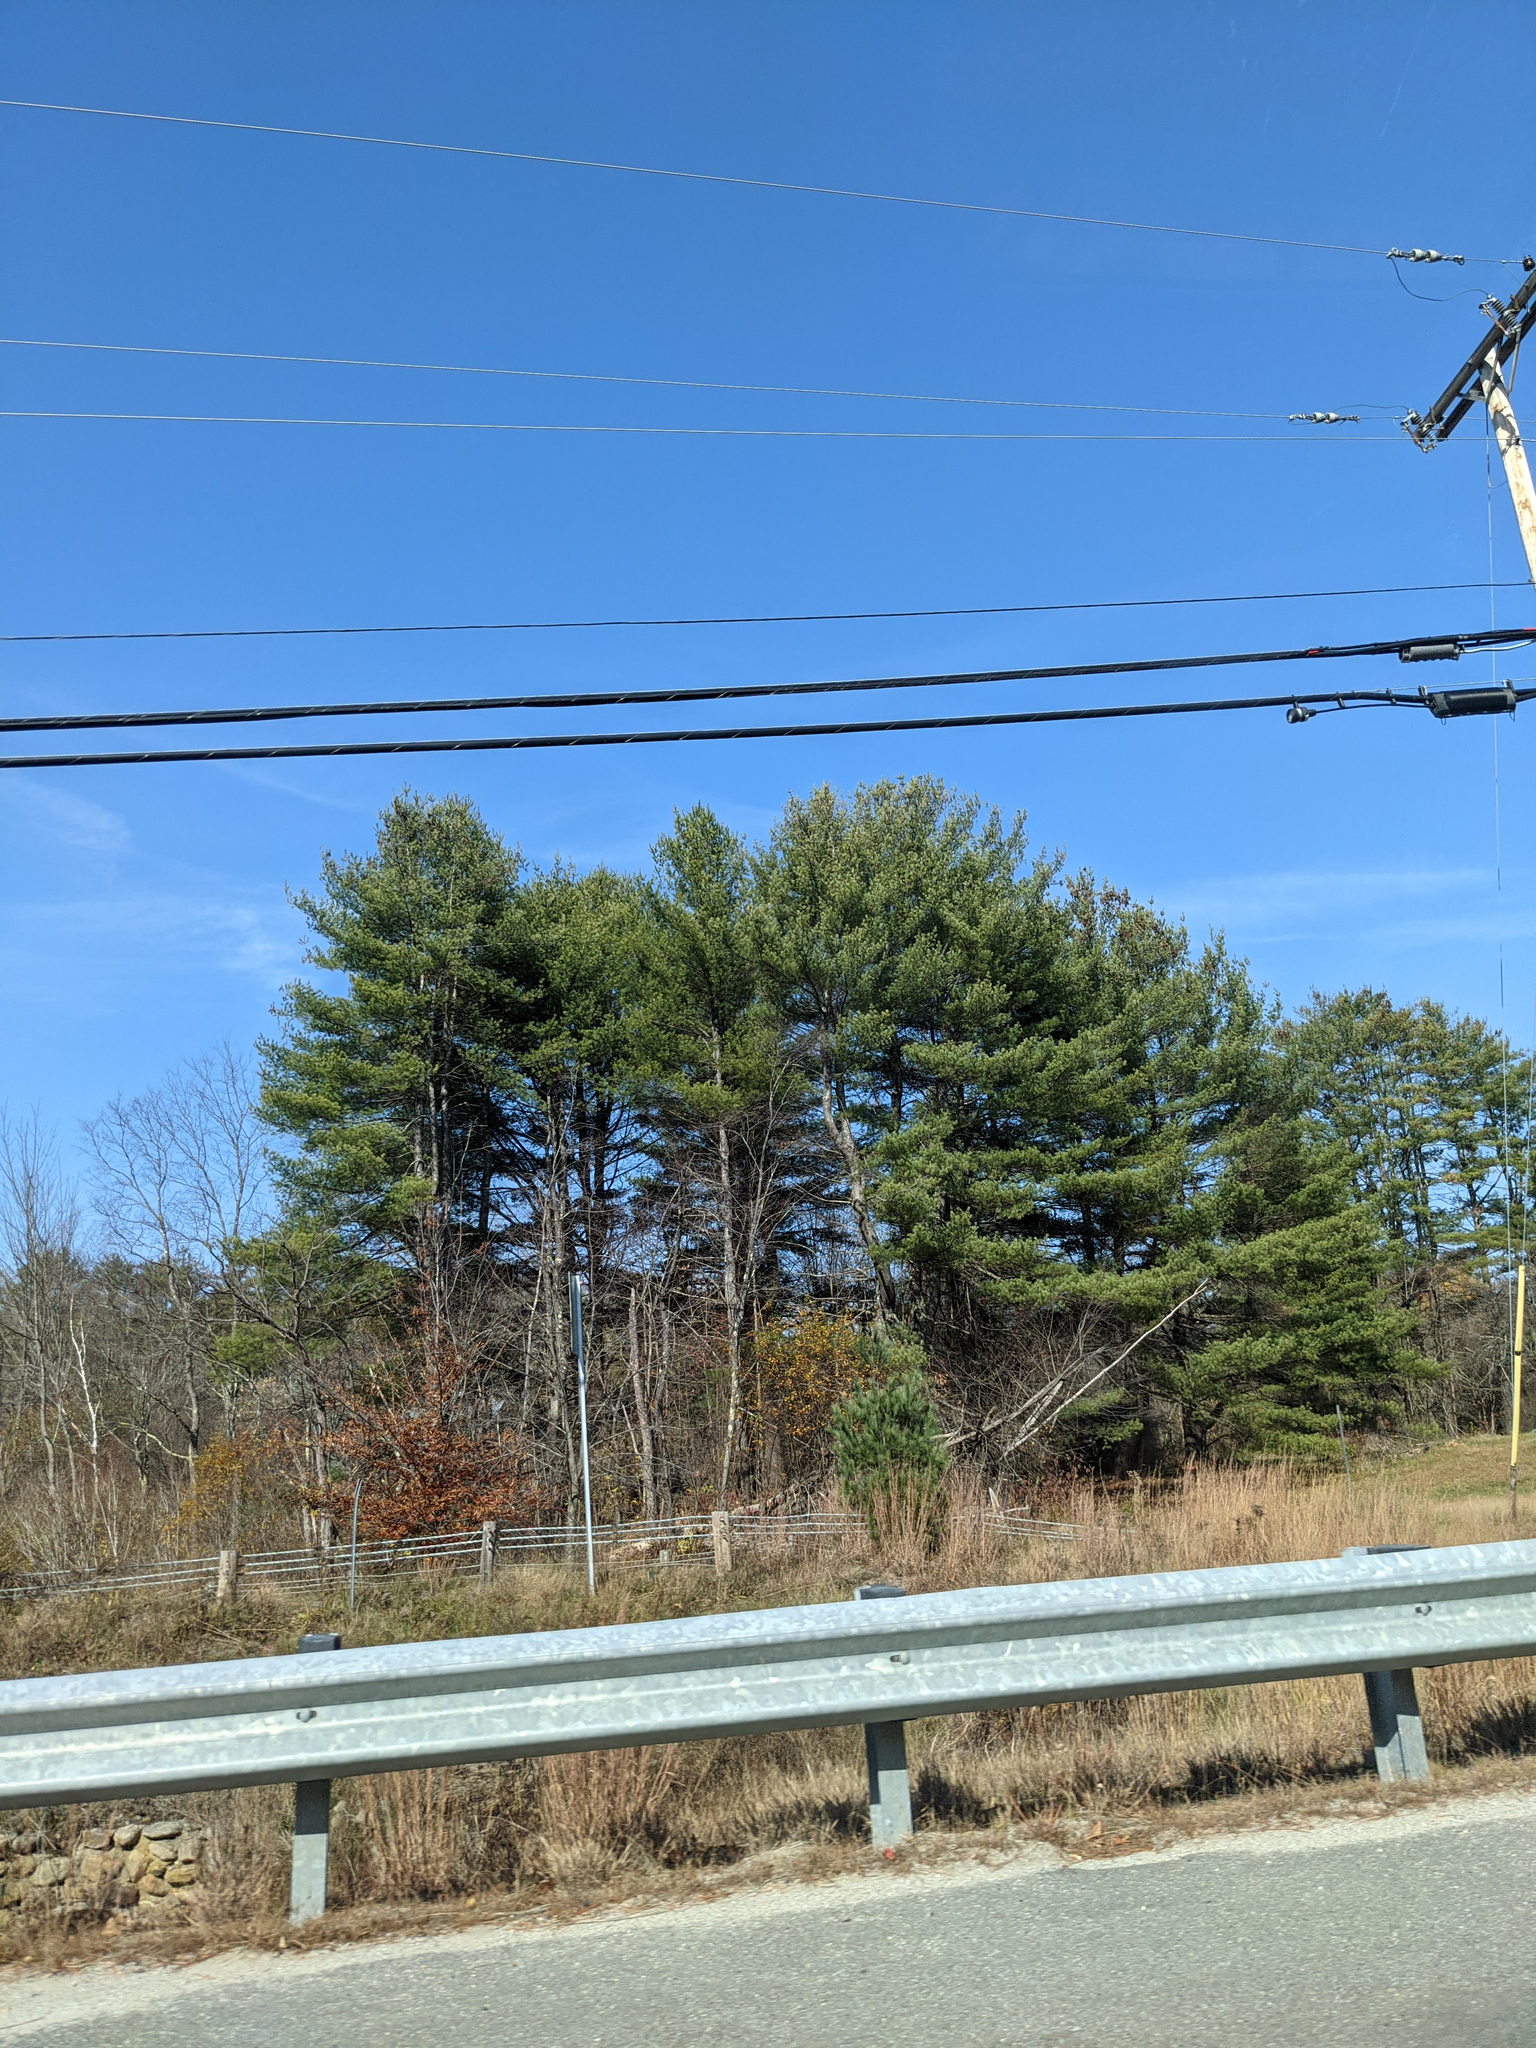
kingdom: Plantae
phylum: Tracheophyta
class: Pinopsida
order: Pinales
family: Pinaceae
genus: Pinus
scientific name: Pinus strobus
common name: Weymouth pine
